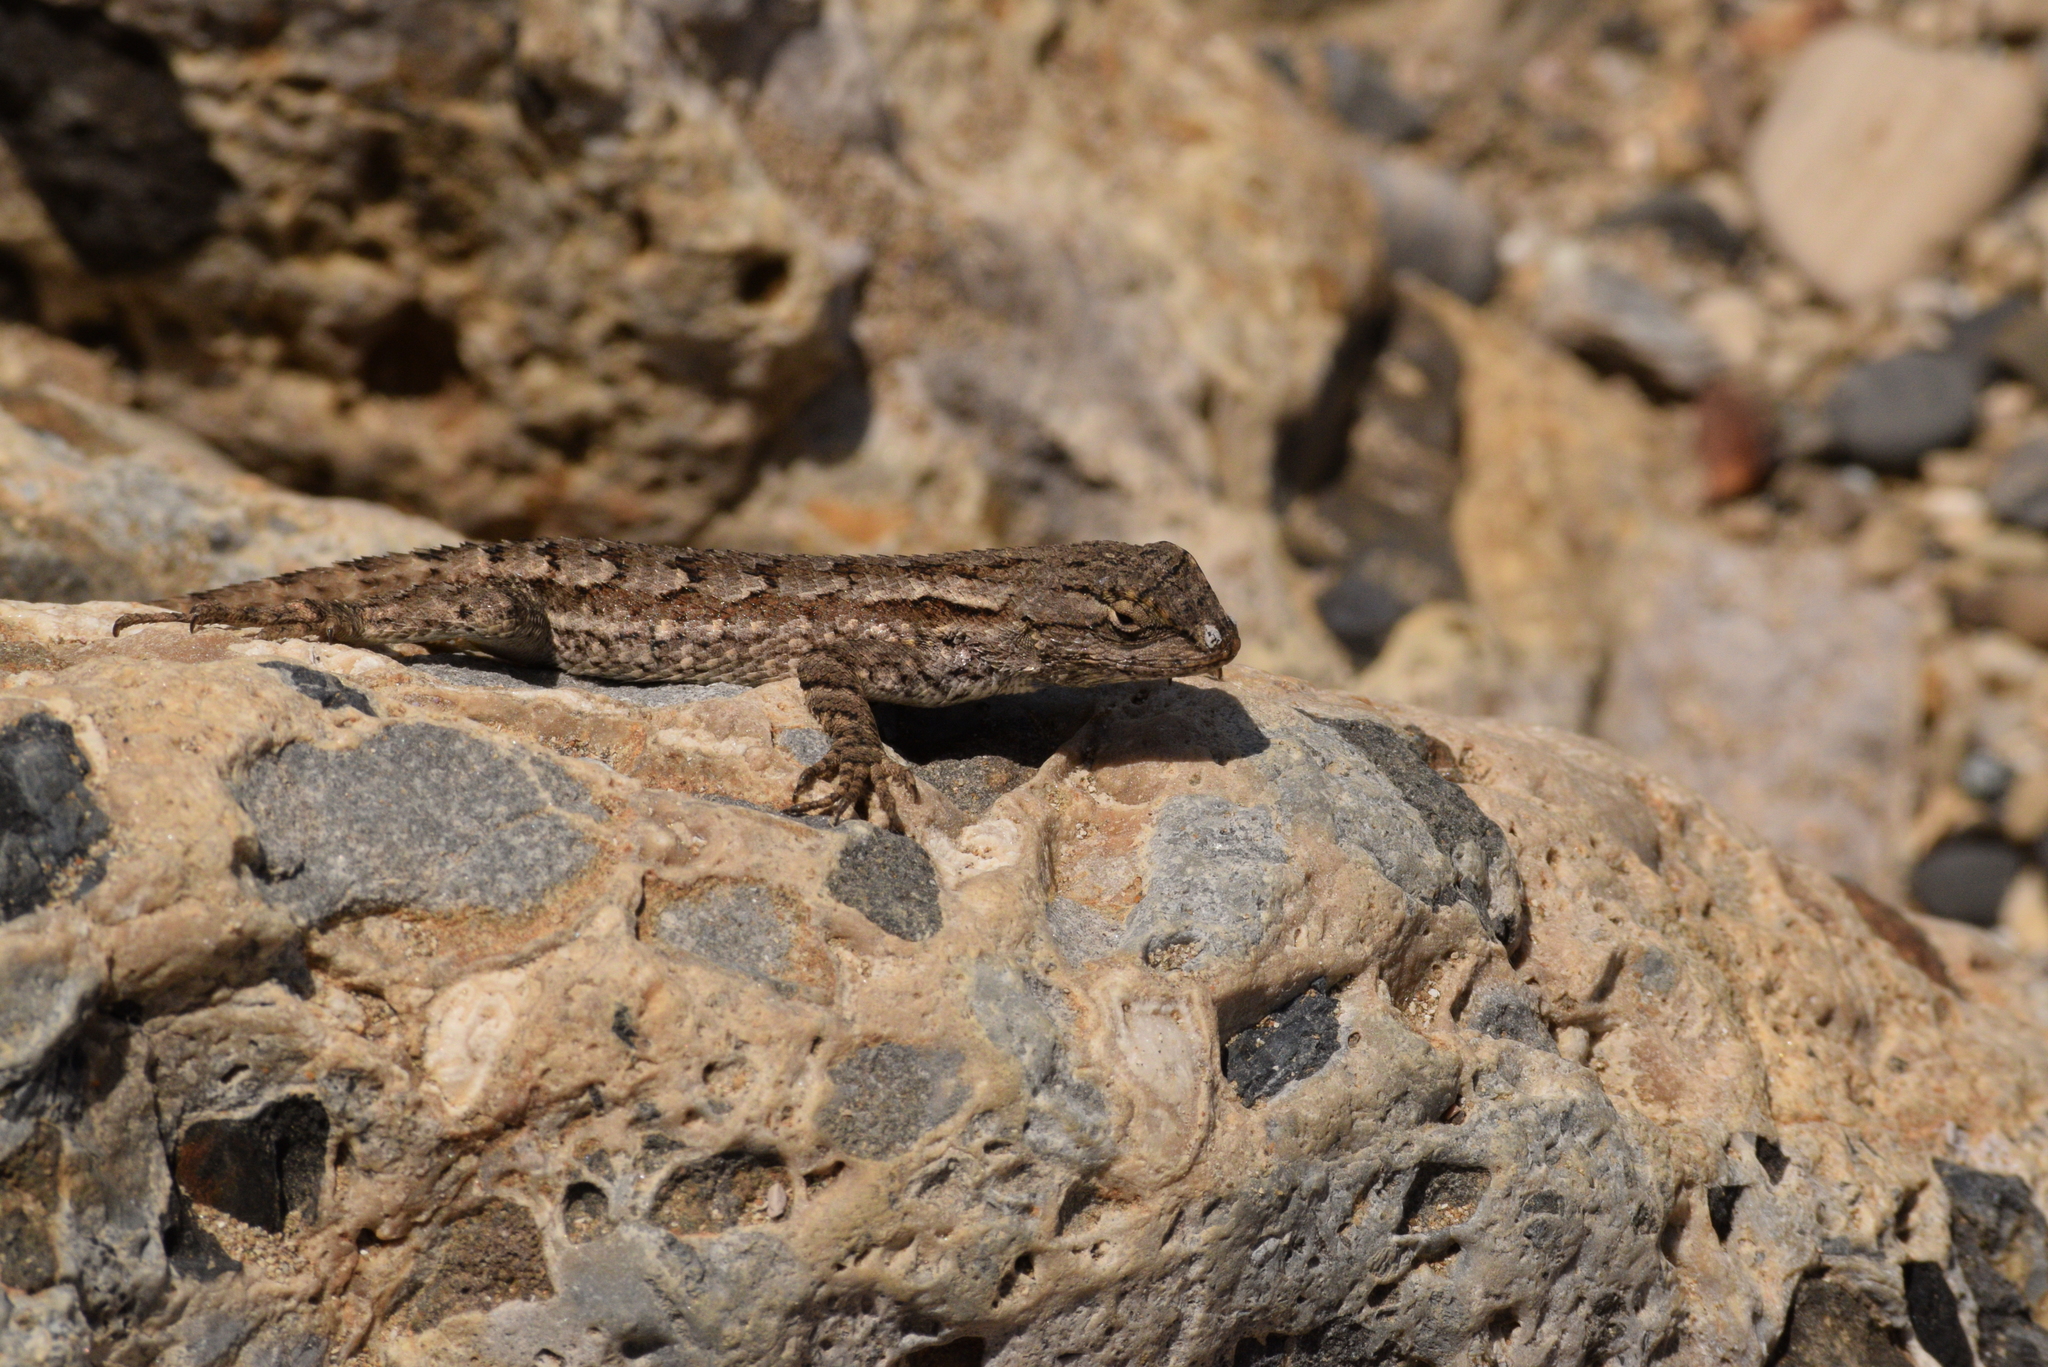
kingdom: Animalia
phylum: Chordata
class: Squamata
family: Phrynosomatidae
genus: Sceloporus
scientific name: Sceloporus occidentalis
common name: Western fence lizard
